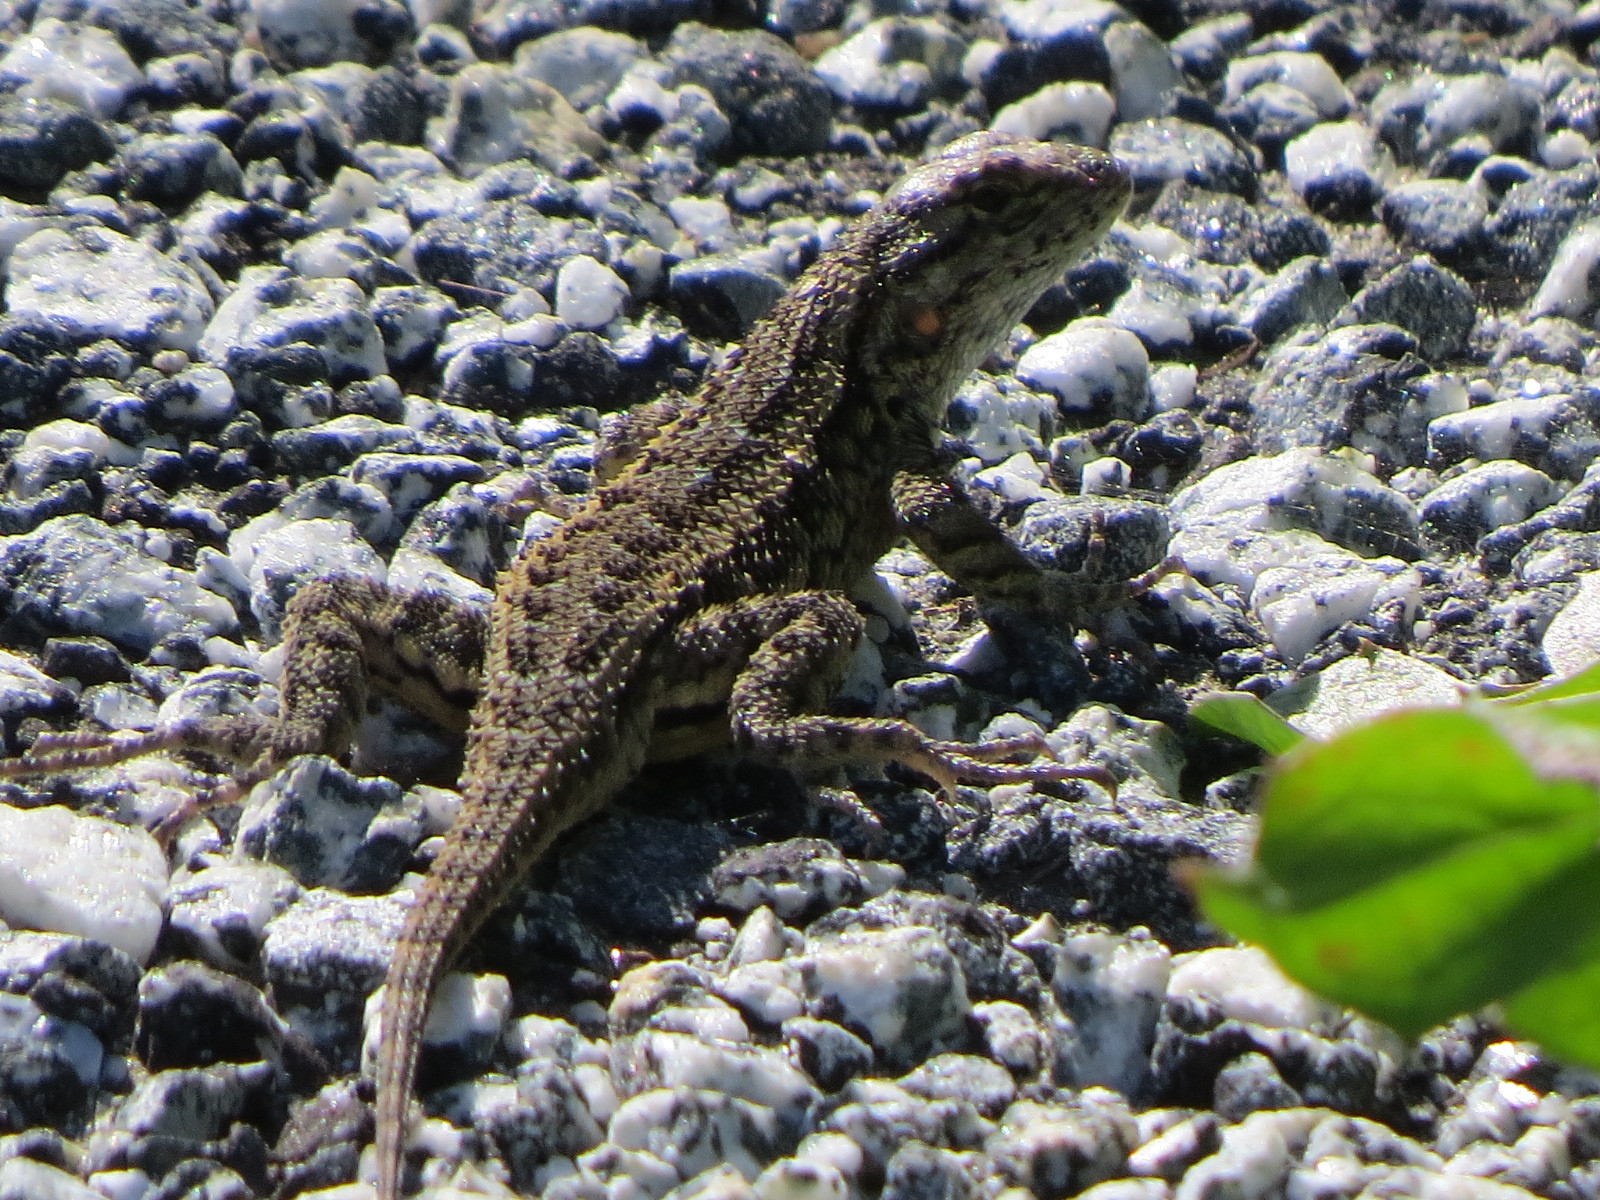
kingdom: Animalia
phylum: Chordata
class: Squamata
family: Phrynosomatidae
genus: Sceloporus
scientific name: Sceloporus occidentalis
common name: Western fence lizard
